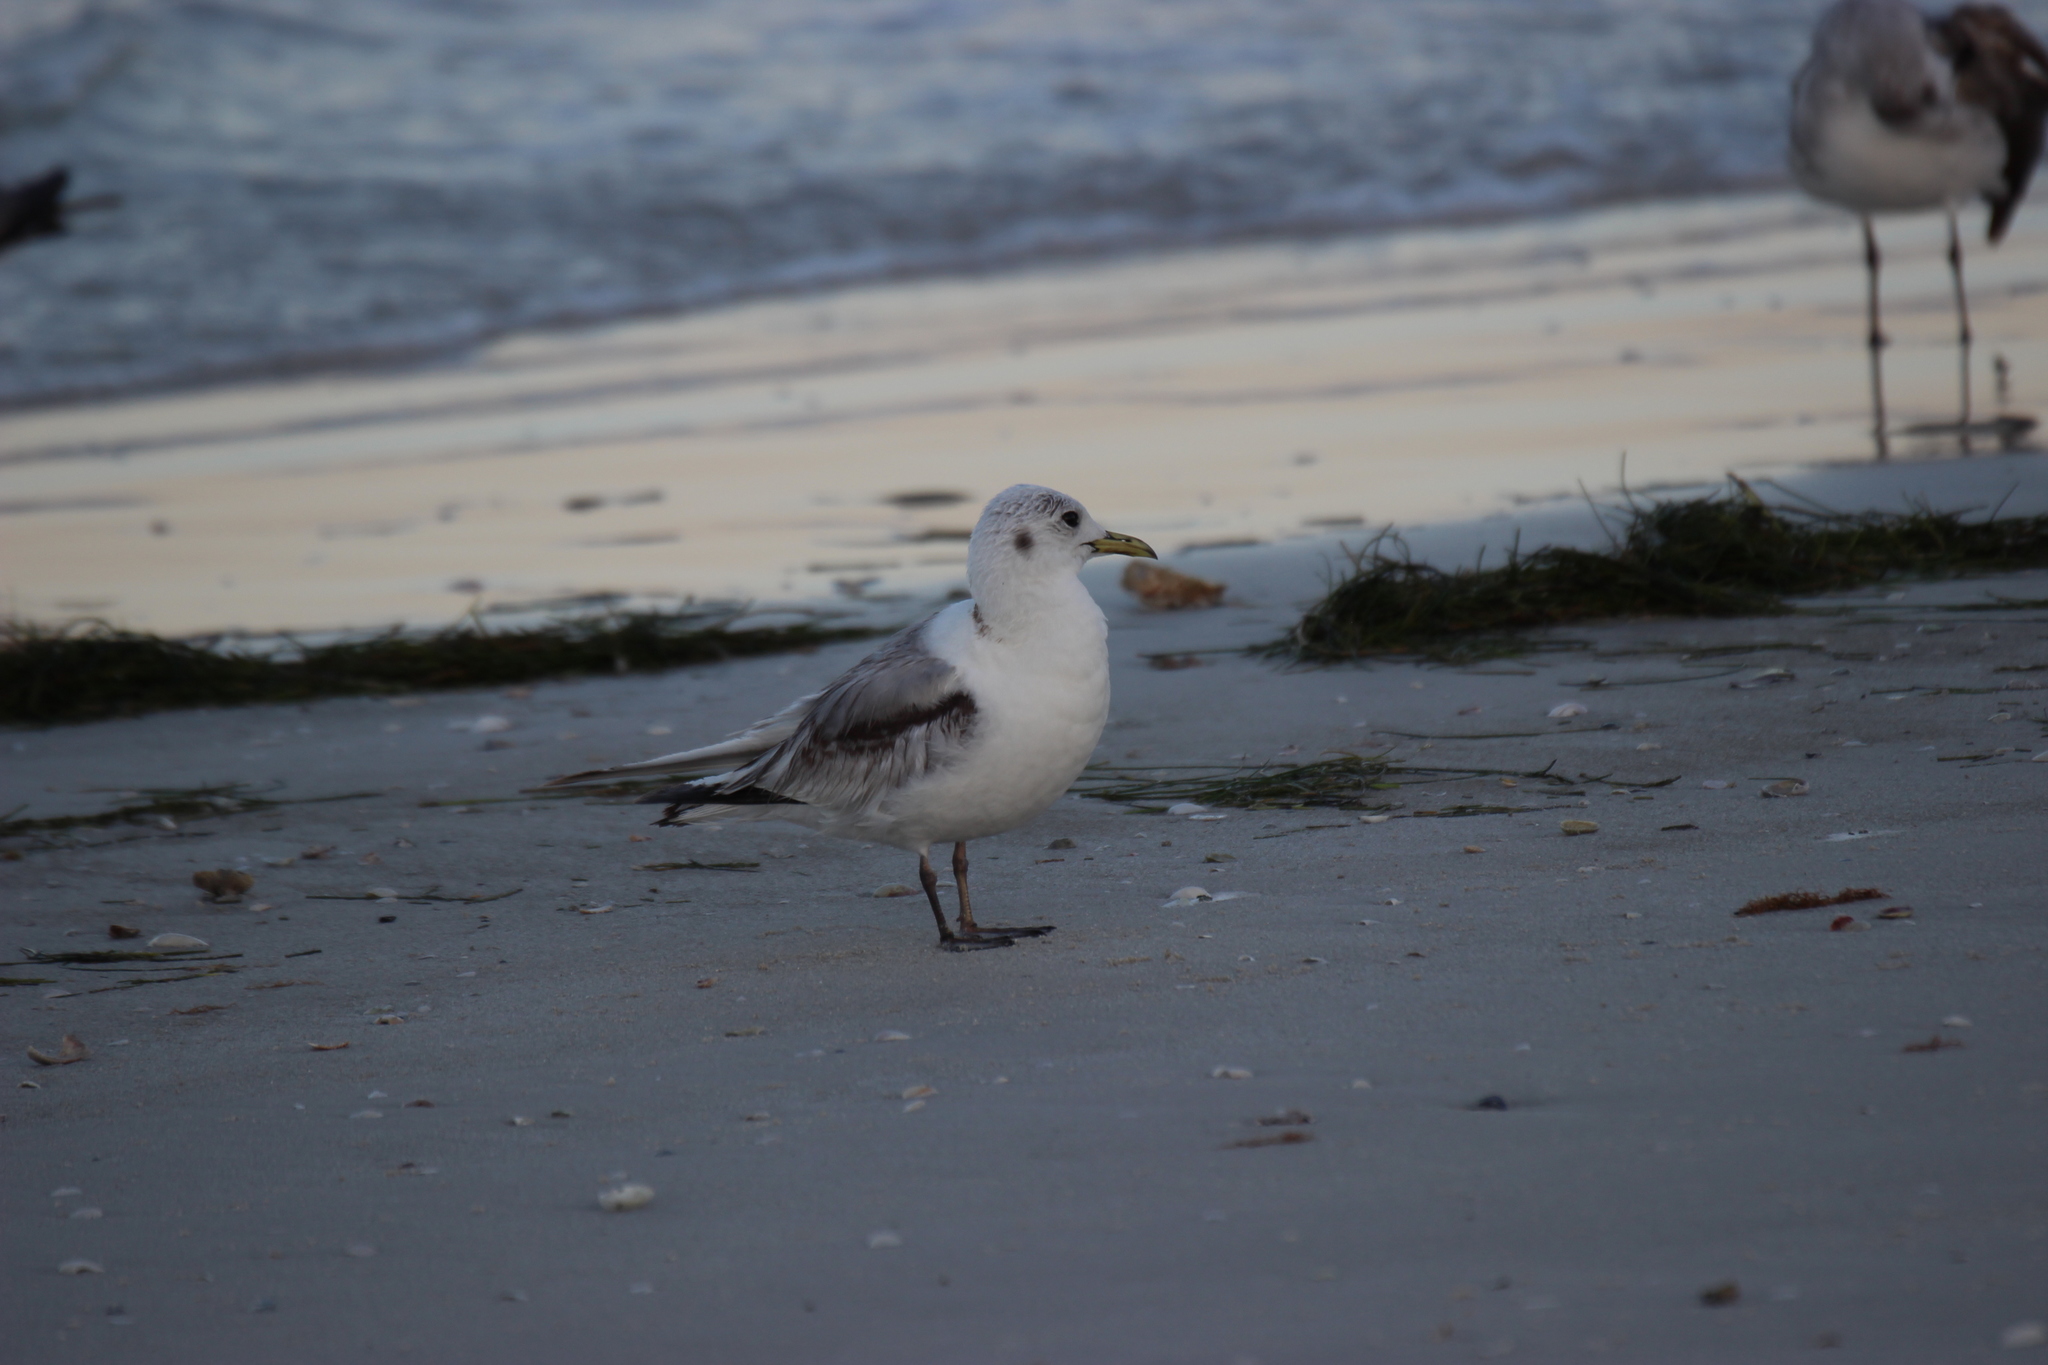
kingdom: Animalia
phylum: Chordata
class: Aves
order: Charadriiformes
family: Laridae
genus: Rissa
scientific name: Rissa tridactyla
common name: Black-legged kittiwake
